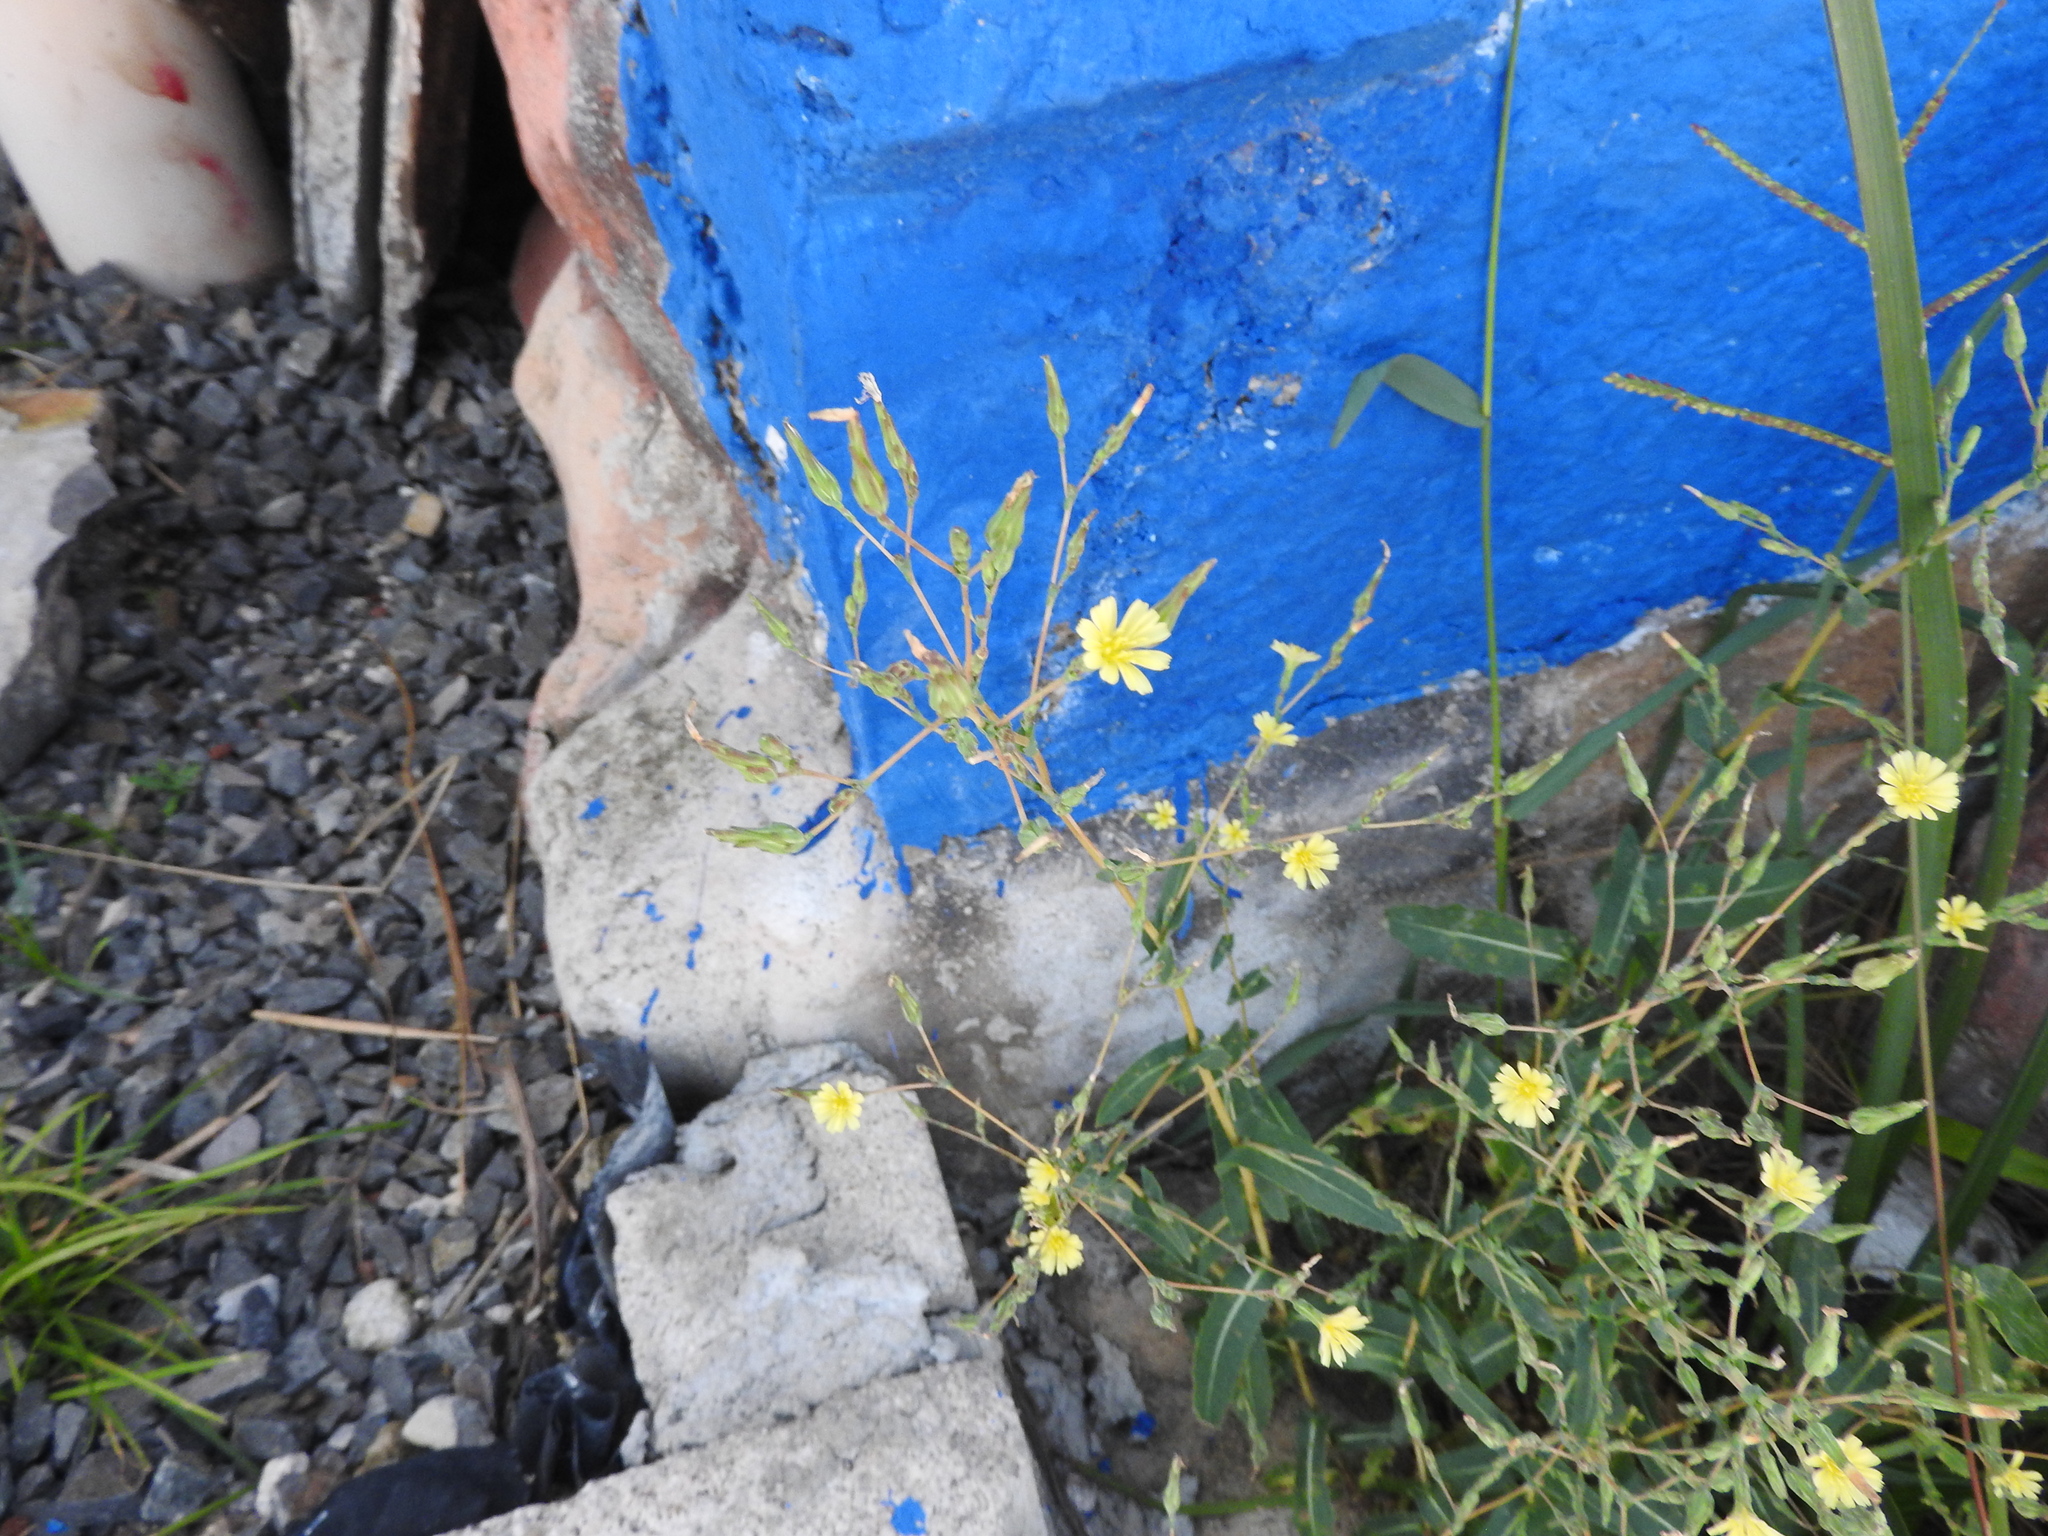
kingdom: Plantae
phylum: Tracheophyta
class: Magnoliopsida
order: Asterales
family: Asteraceae
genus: Lactuca
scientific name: Lactuca serriola
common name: Prickly lettuce
